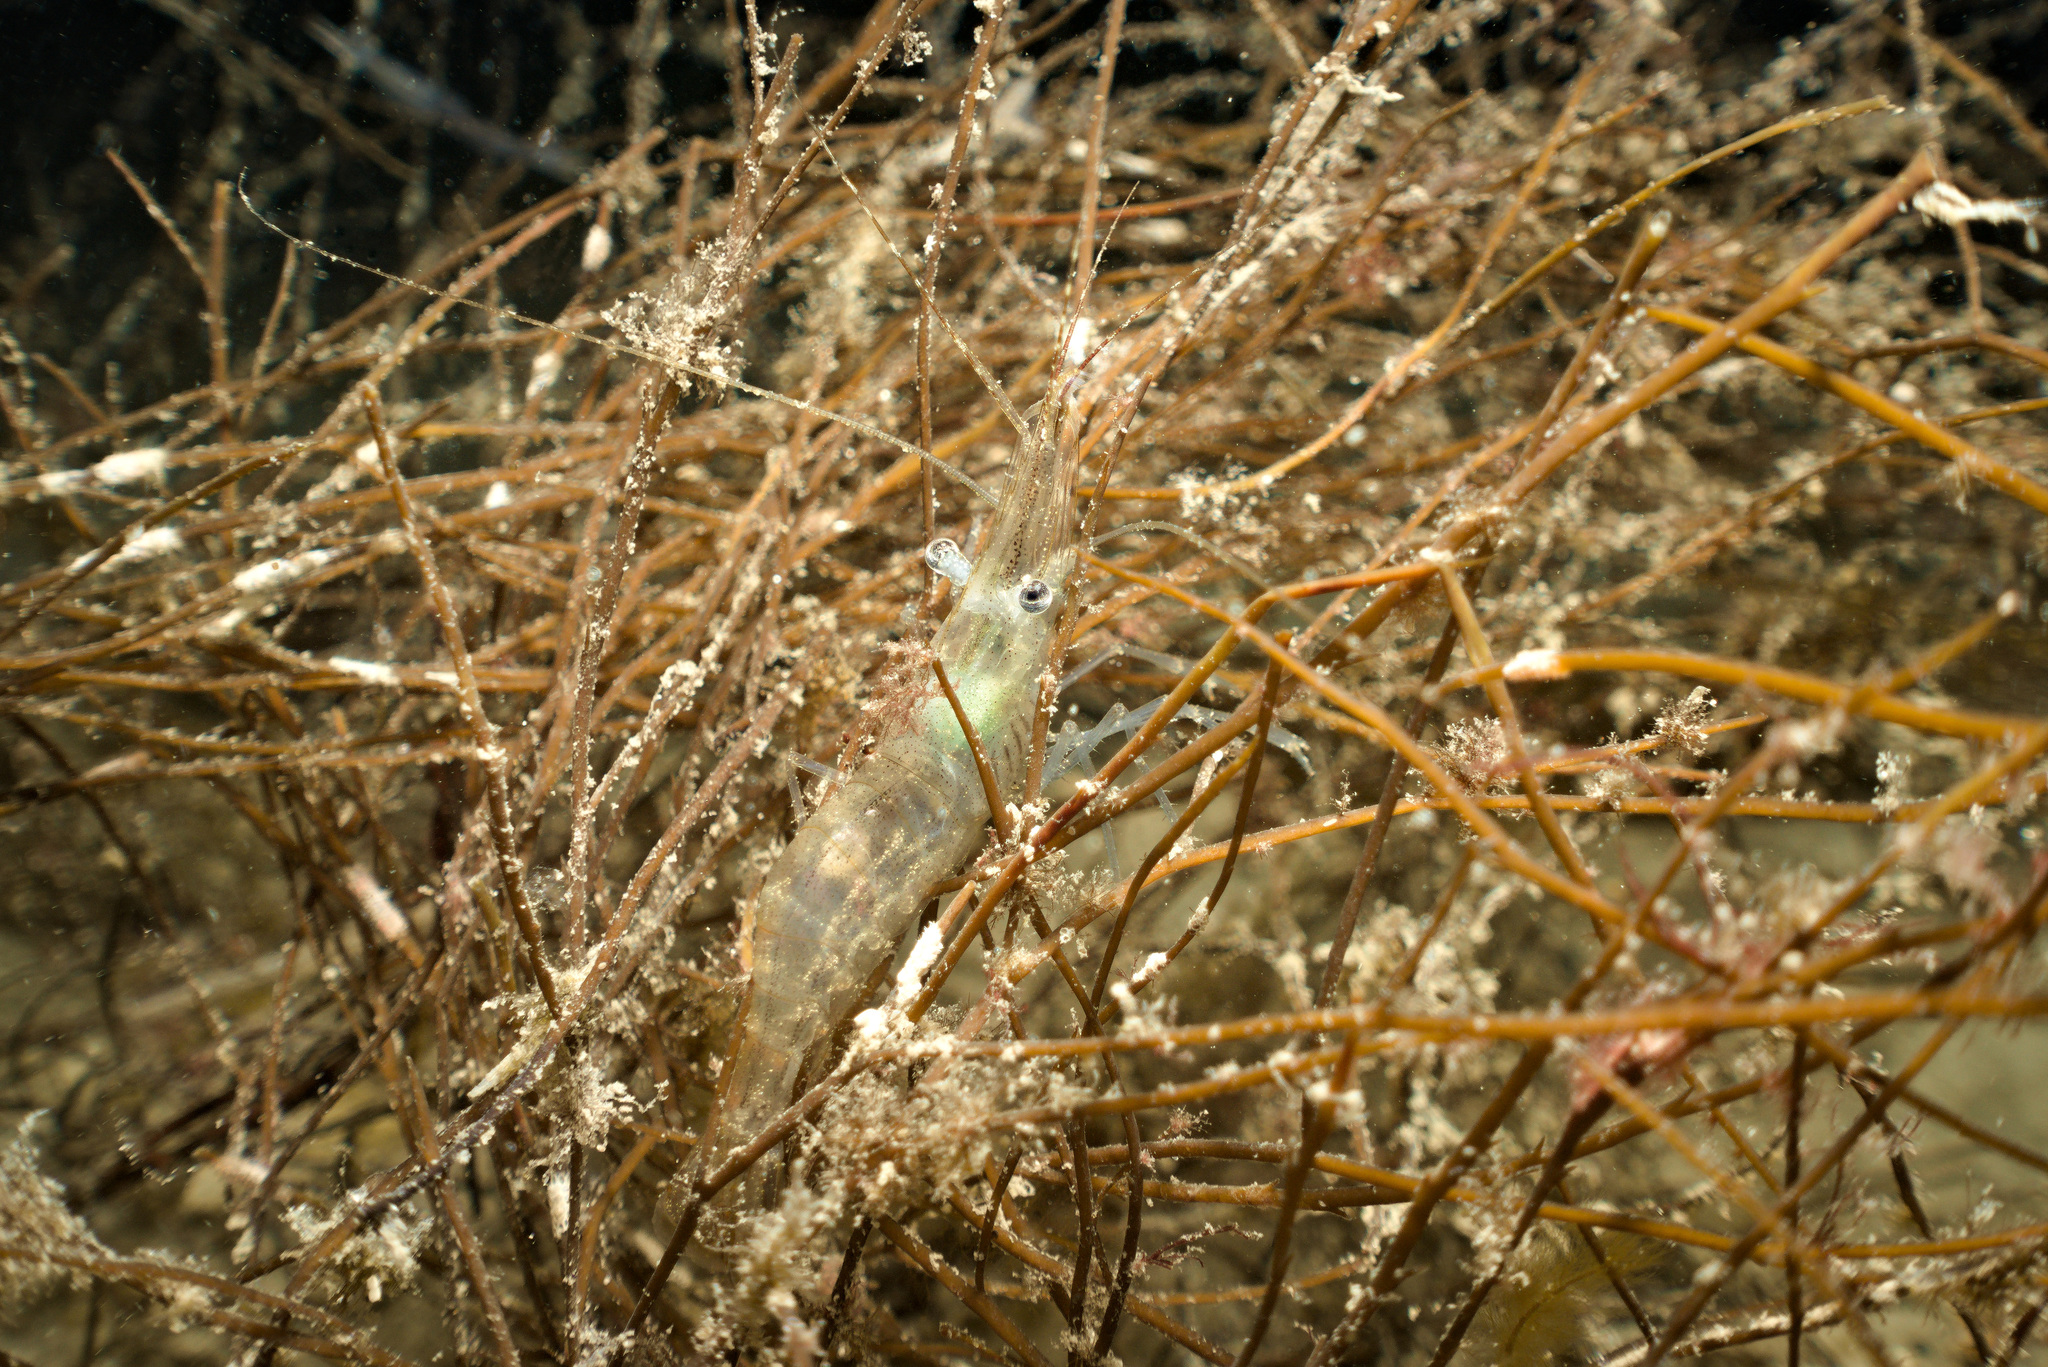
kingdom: Animalia
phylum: Arthropoda
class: Malacostraca
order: Decapoda
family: Palaemonidae
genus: Palaemon
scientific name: Palaemon adspersus
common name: Baltic prawn
